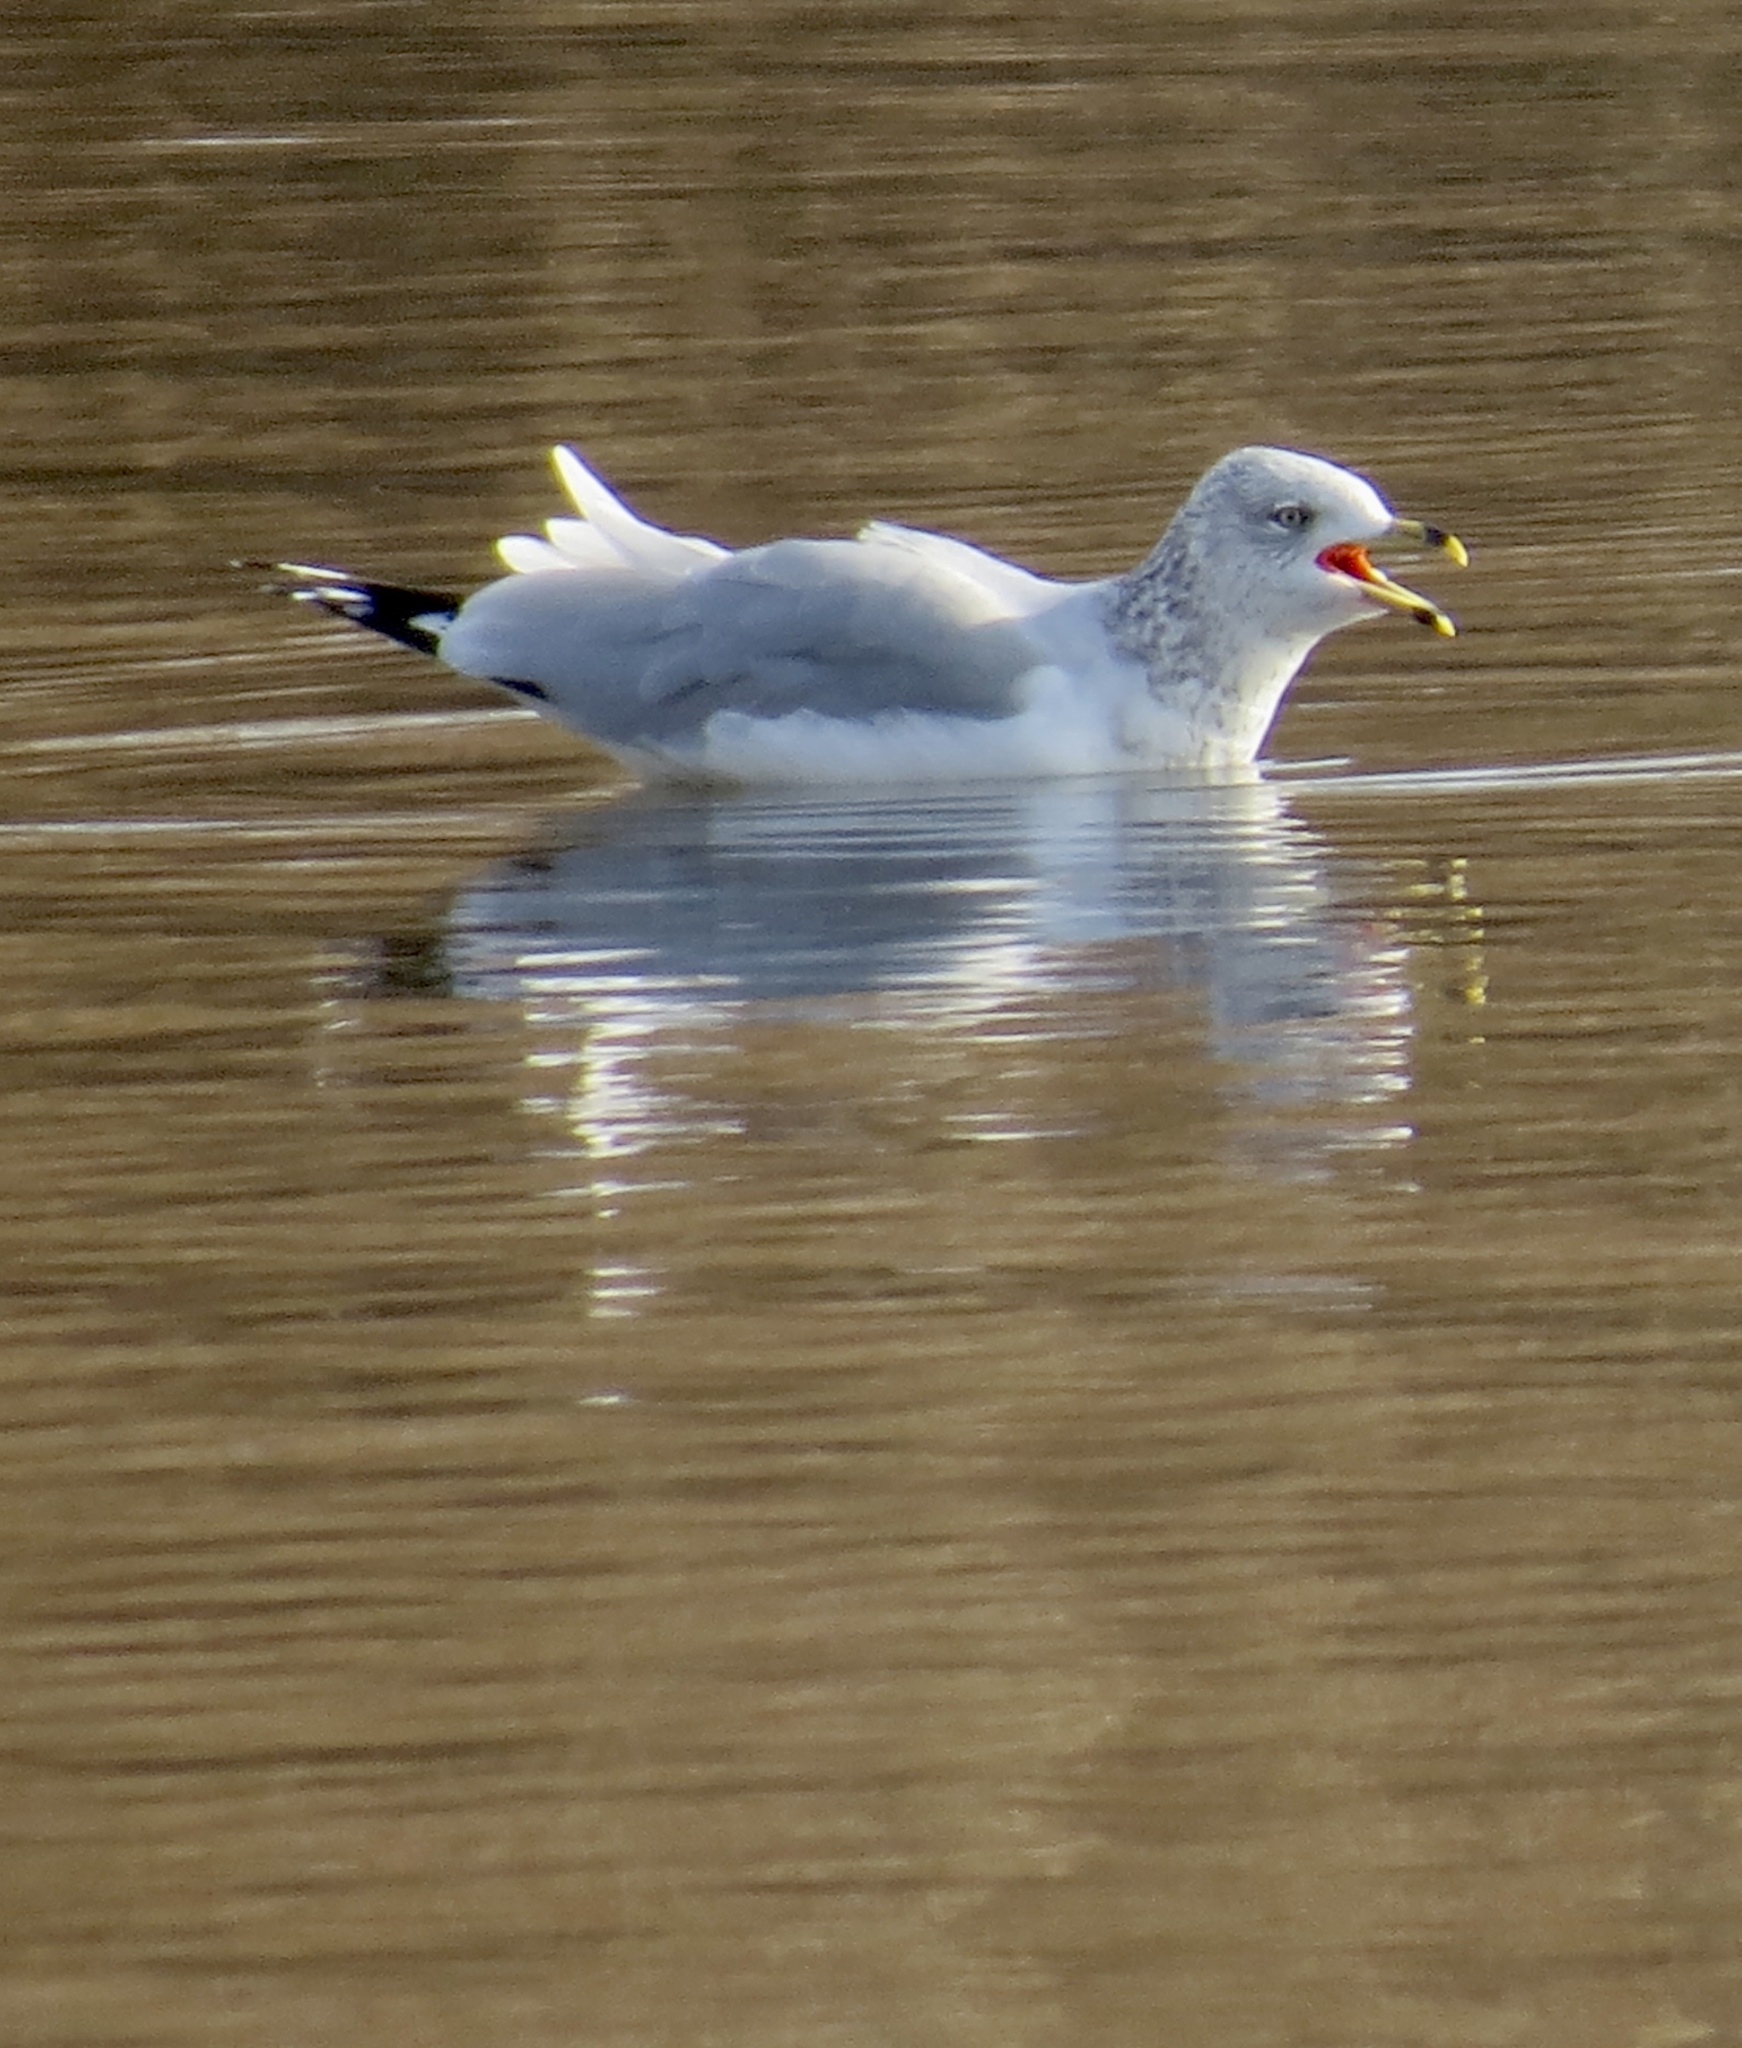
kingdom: Animalia
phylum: Chordata
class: Aves
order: Charadriiformes
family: Laridae
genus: Larus
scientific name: Larus delawarensis
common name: Ring-billed gull
